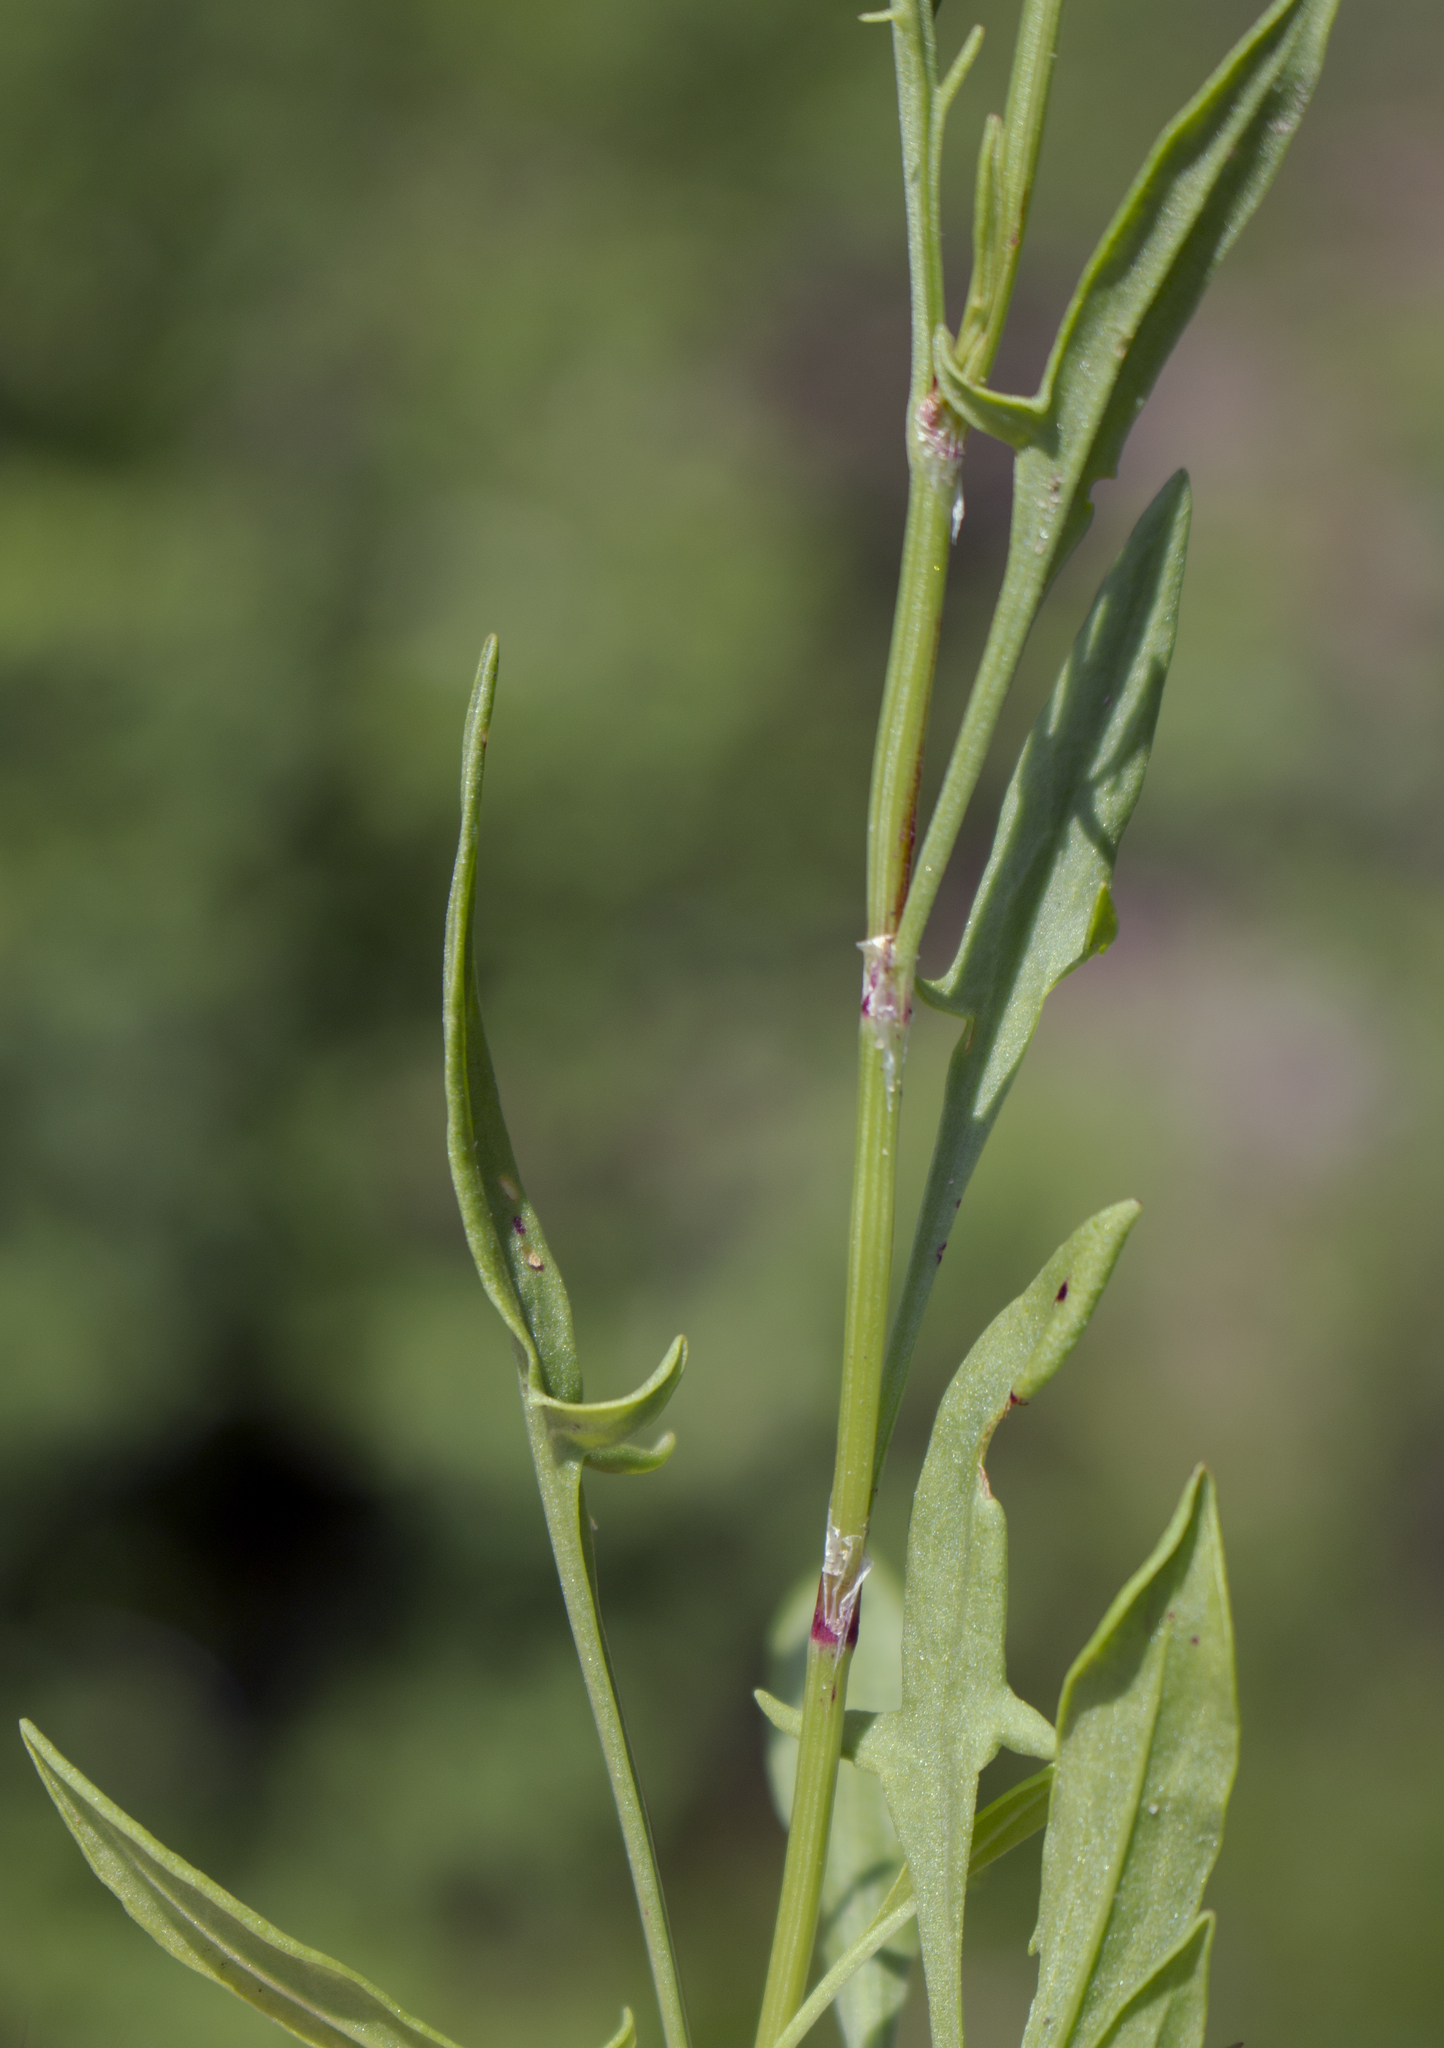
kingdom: Plantae
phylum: Tracheophyta
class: Magnoliopsida
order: Caryophyllales
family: Polygonaceae
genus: Rumex
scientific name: Rumex acetosella
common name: Common sheep sorrel
